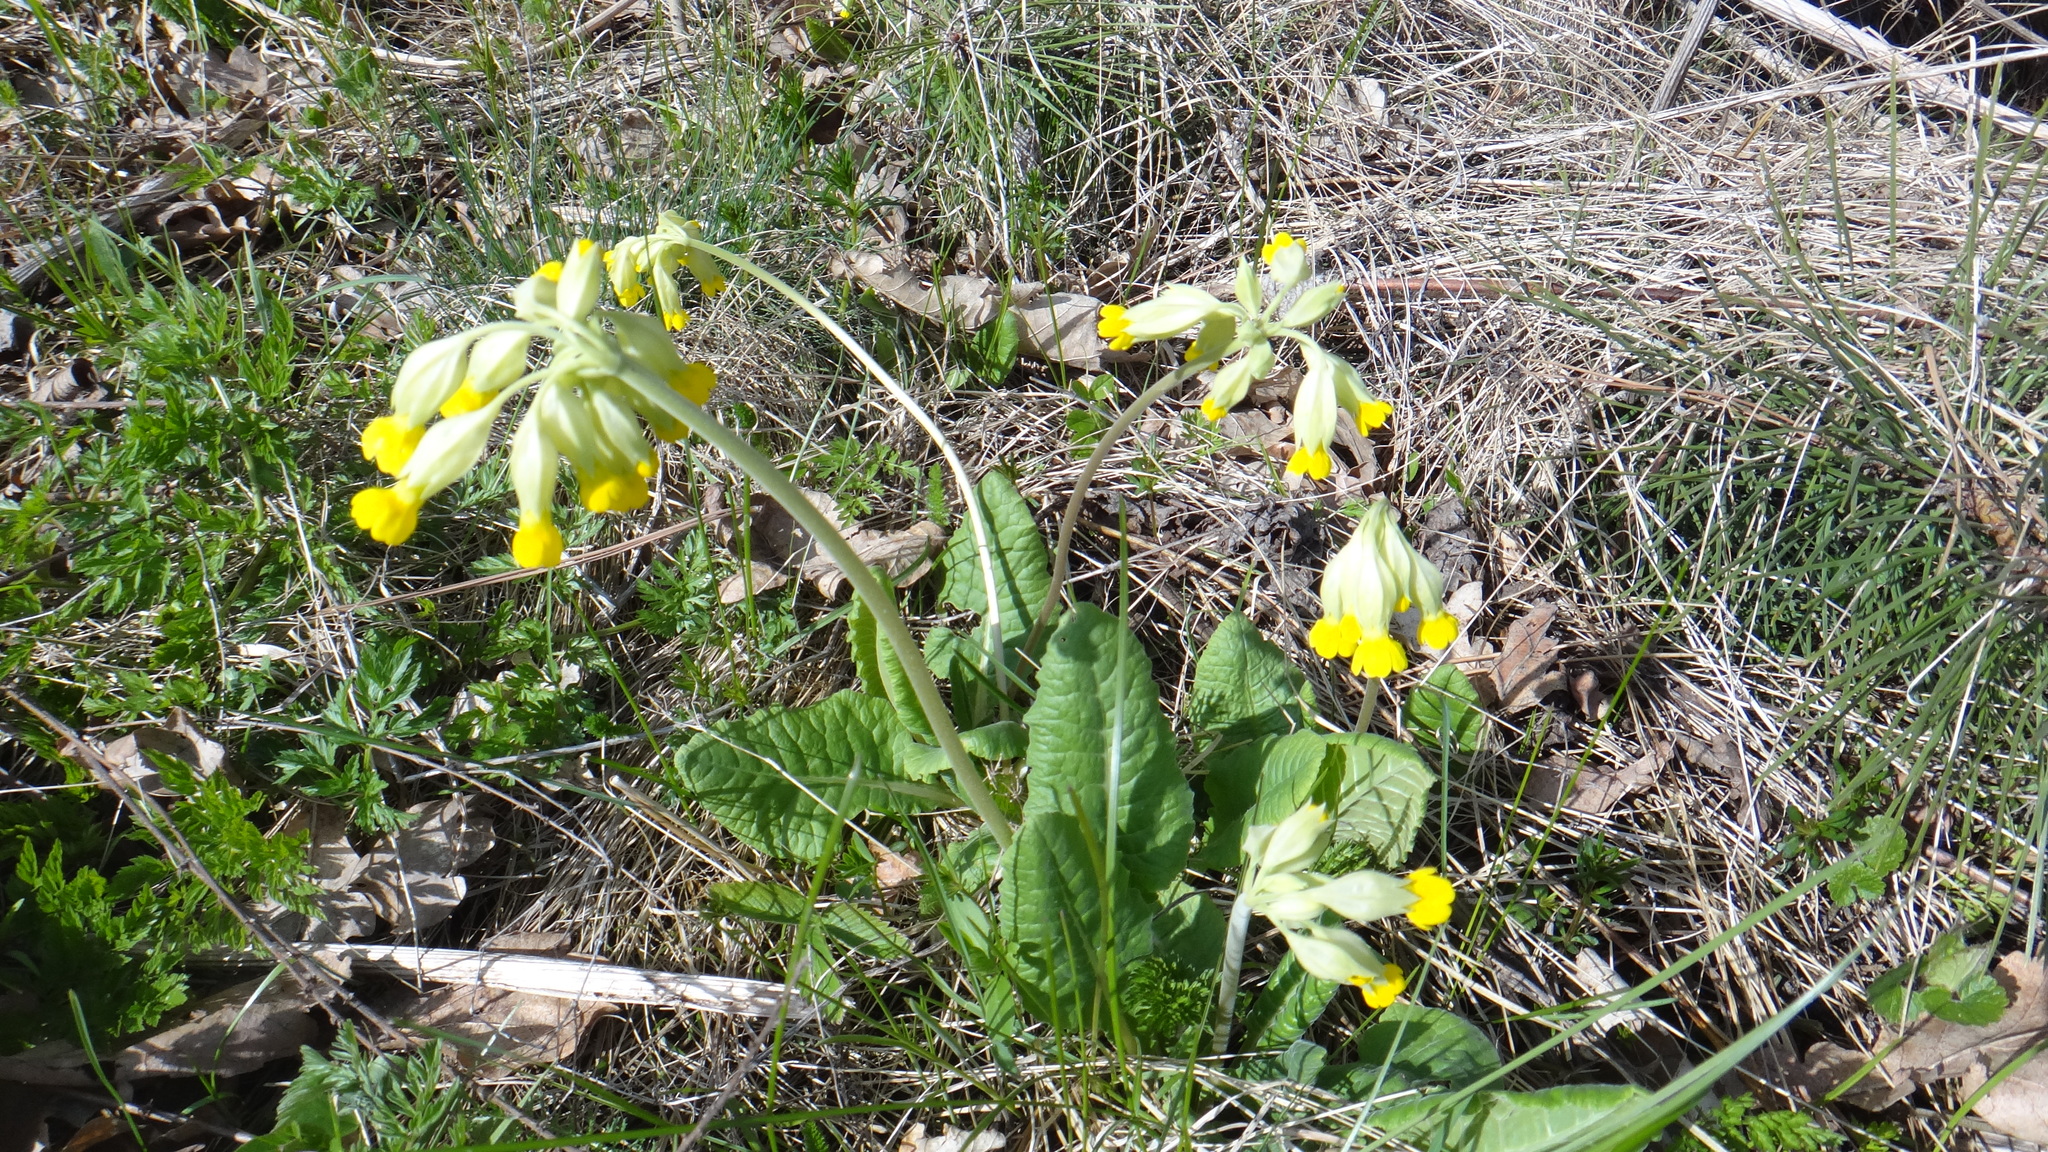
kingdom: Plantae
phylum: Tracheophyta
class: Magnoliopsida
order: Ericales
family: Primulaceae
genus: Primula
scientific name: Primula veris
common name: Cowslip
